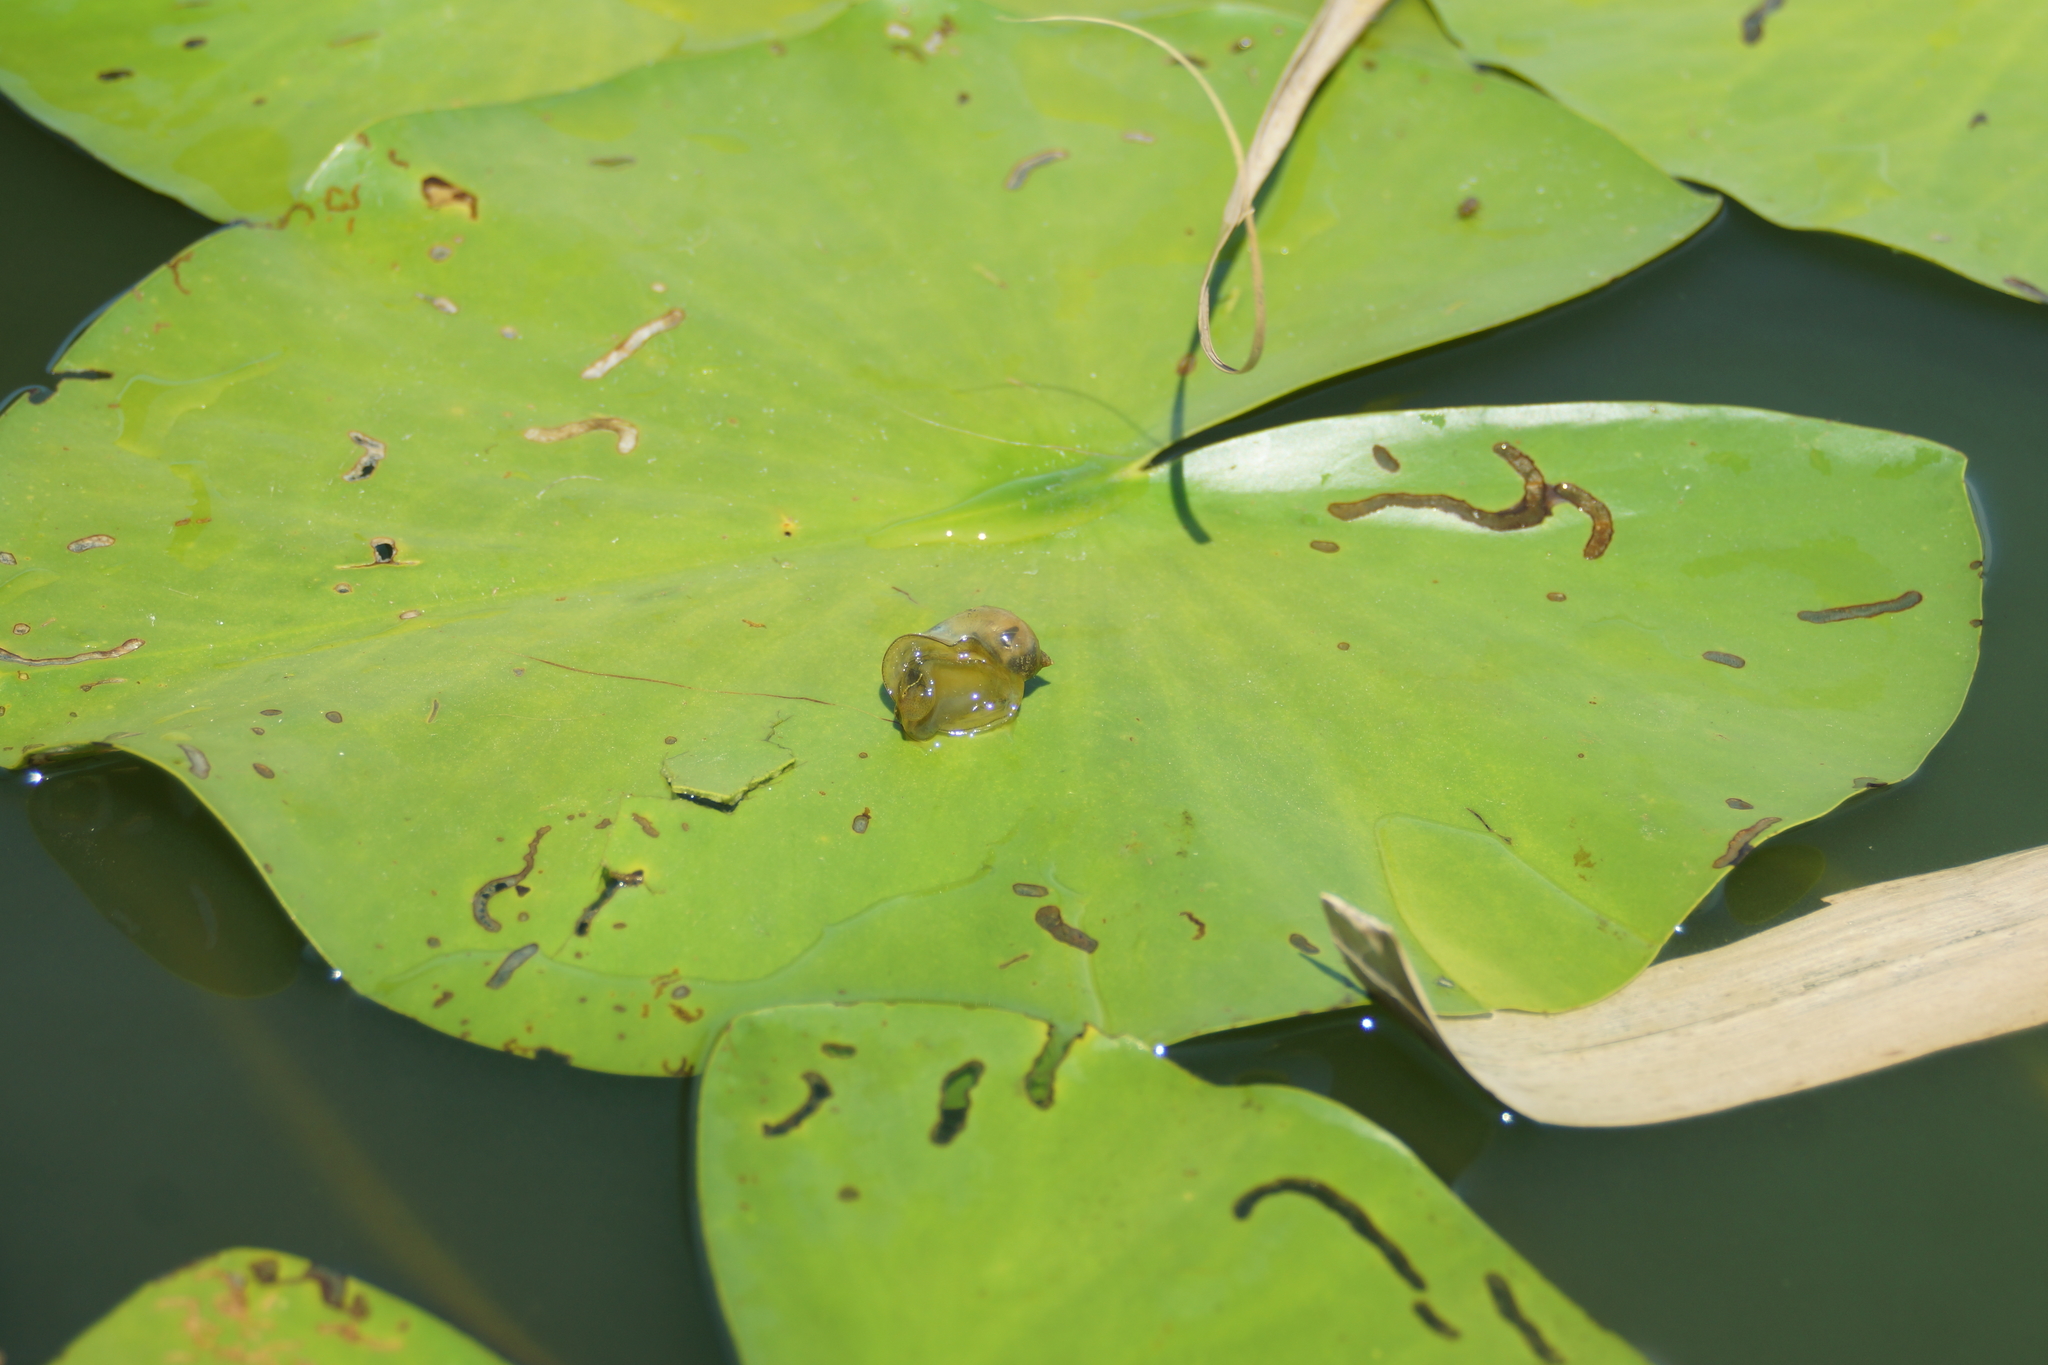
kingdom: Animalia
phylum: Mollusca
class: Gastropoda
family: Lymnaeidae
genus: Radix
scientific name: Radix auricularia
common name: Ear pond snail
